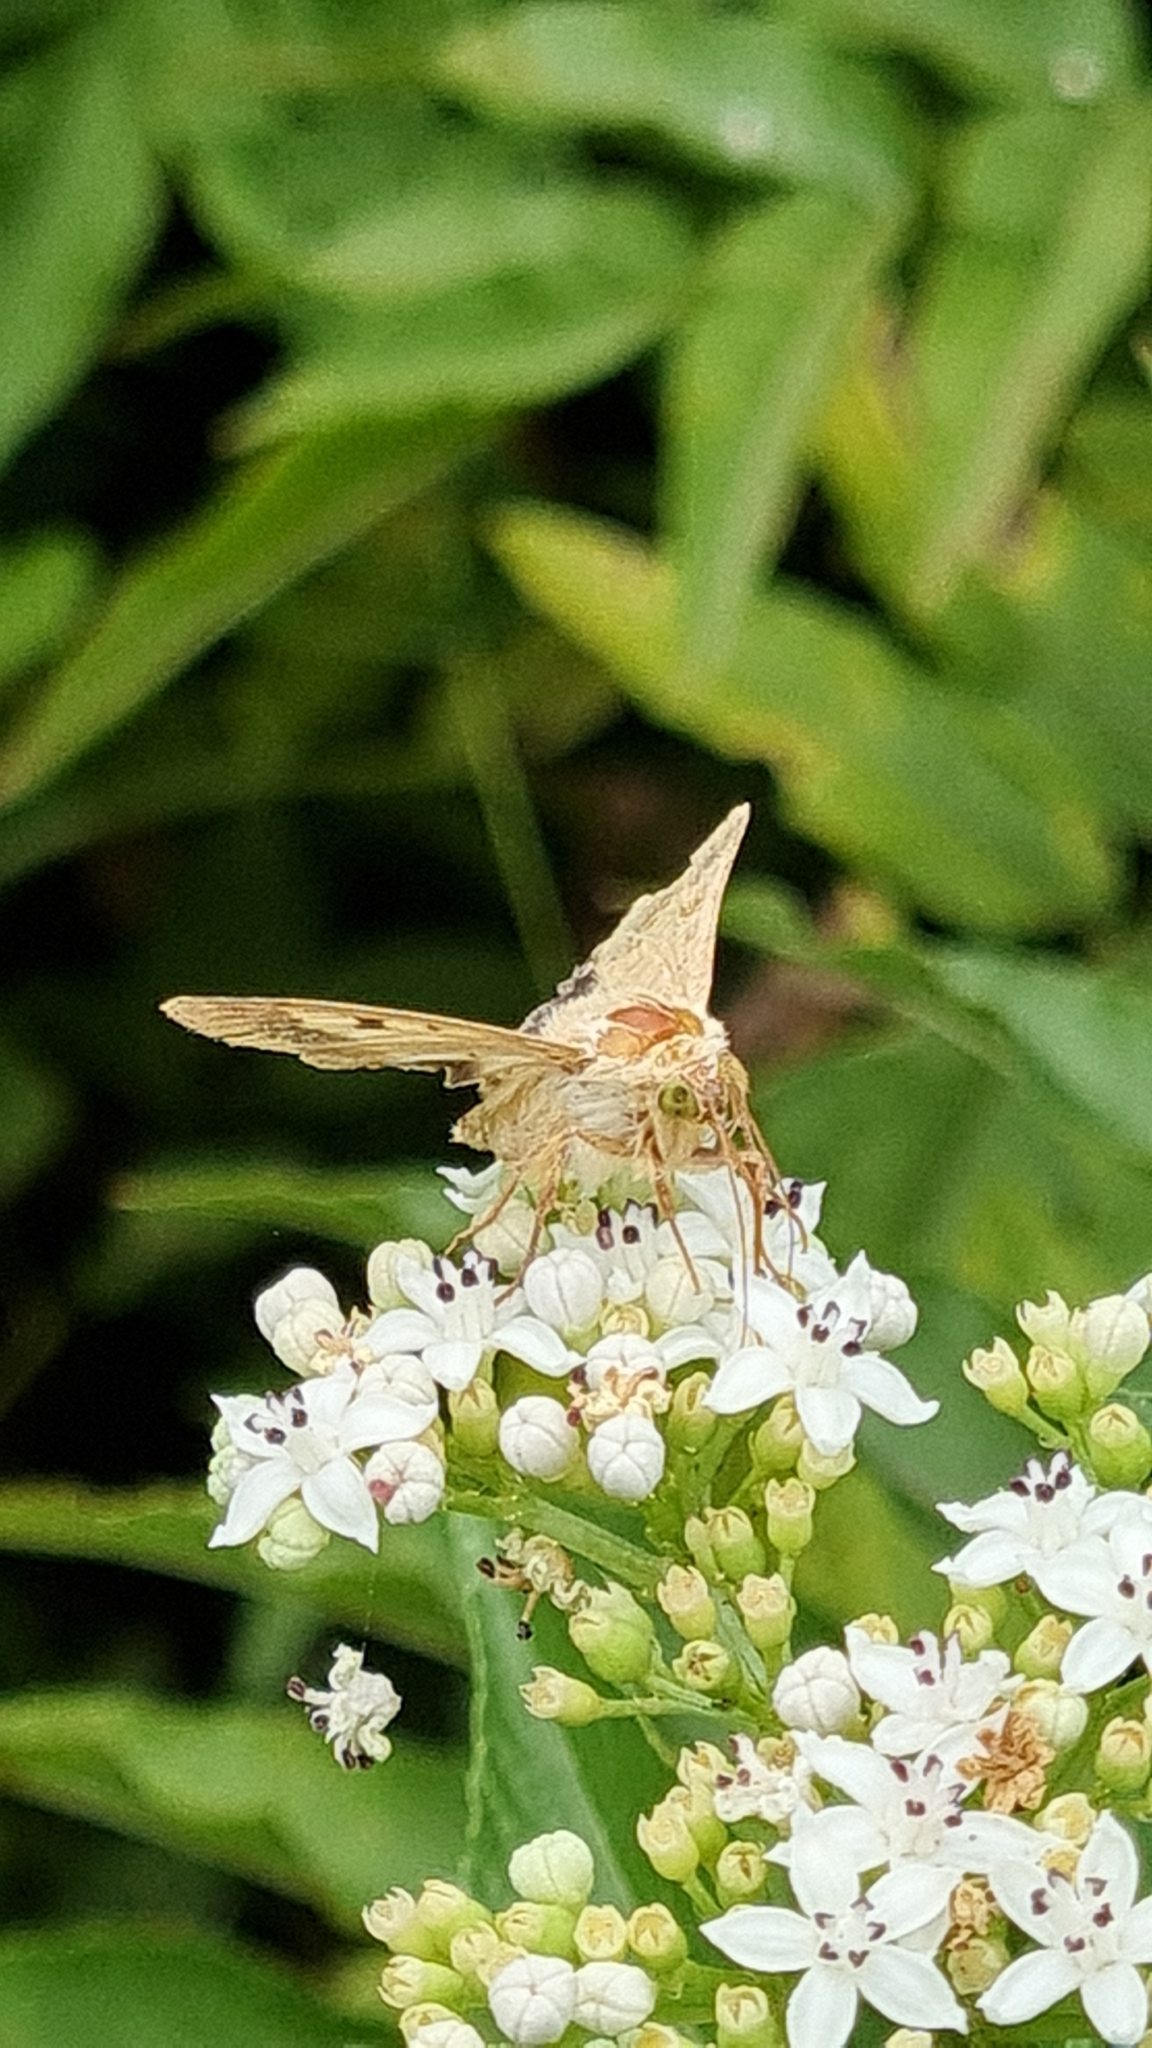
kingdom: Animalia
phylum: Arthropoda
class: Insecta
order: Lepidoptera
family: Noctuidae
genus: Helicoverpa
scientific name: Helicoverpa armigera
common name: Cotton bollworm
